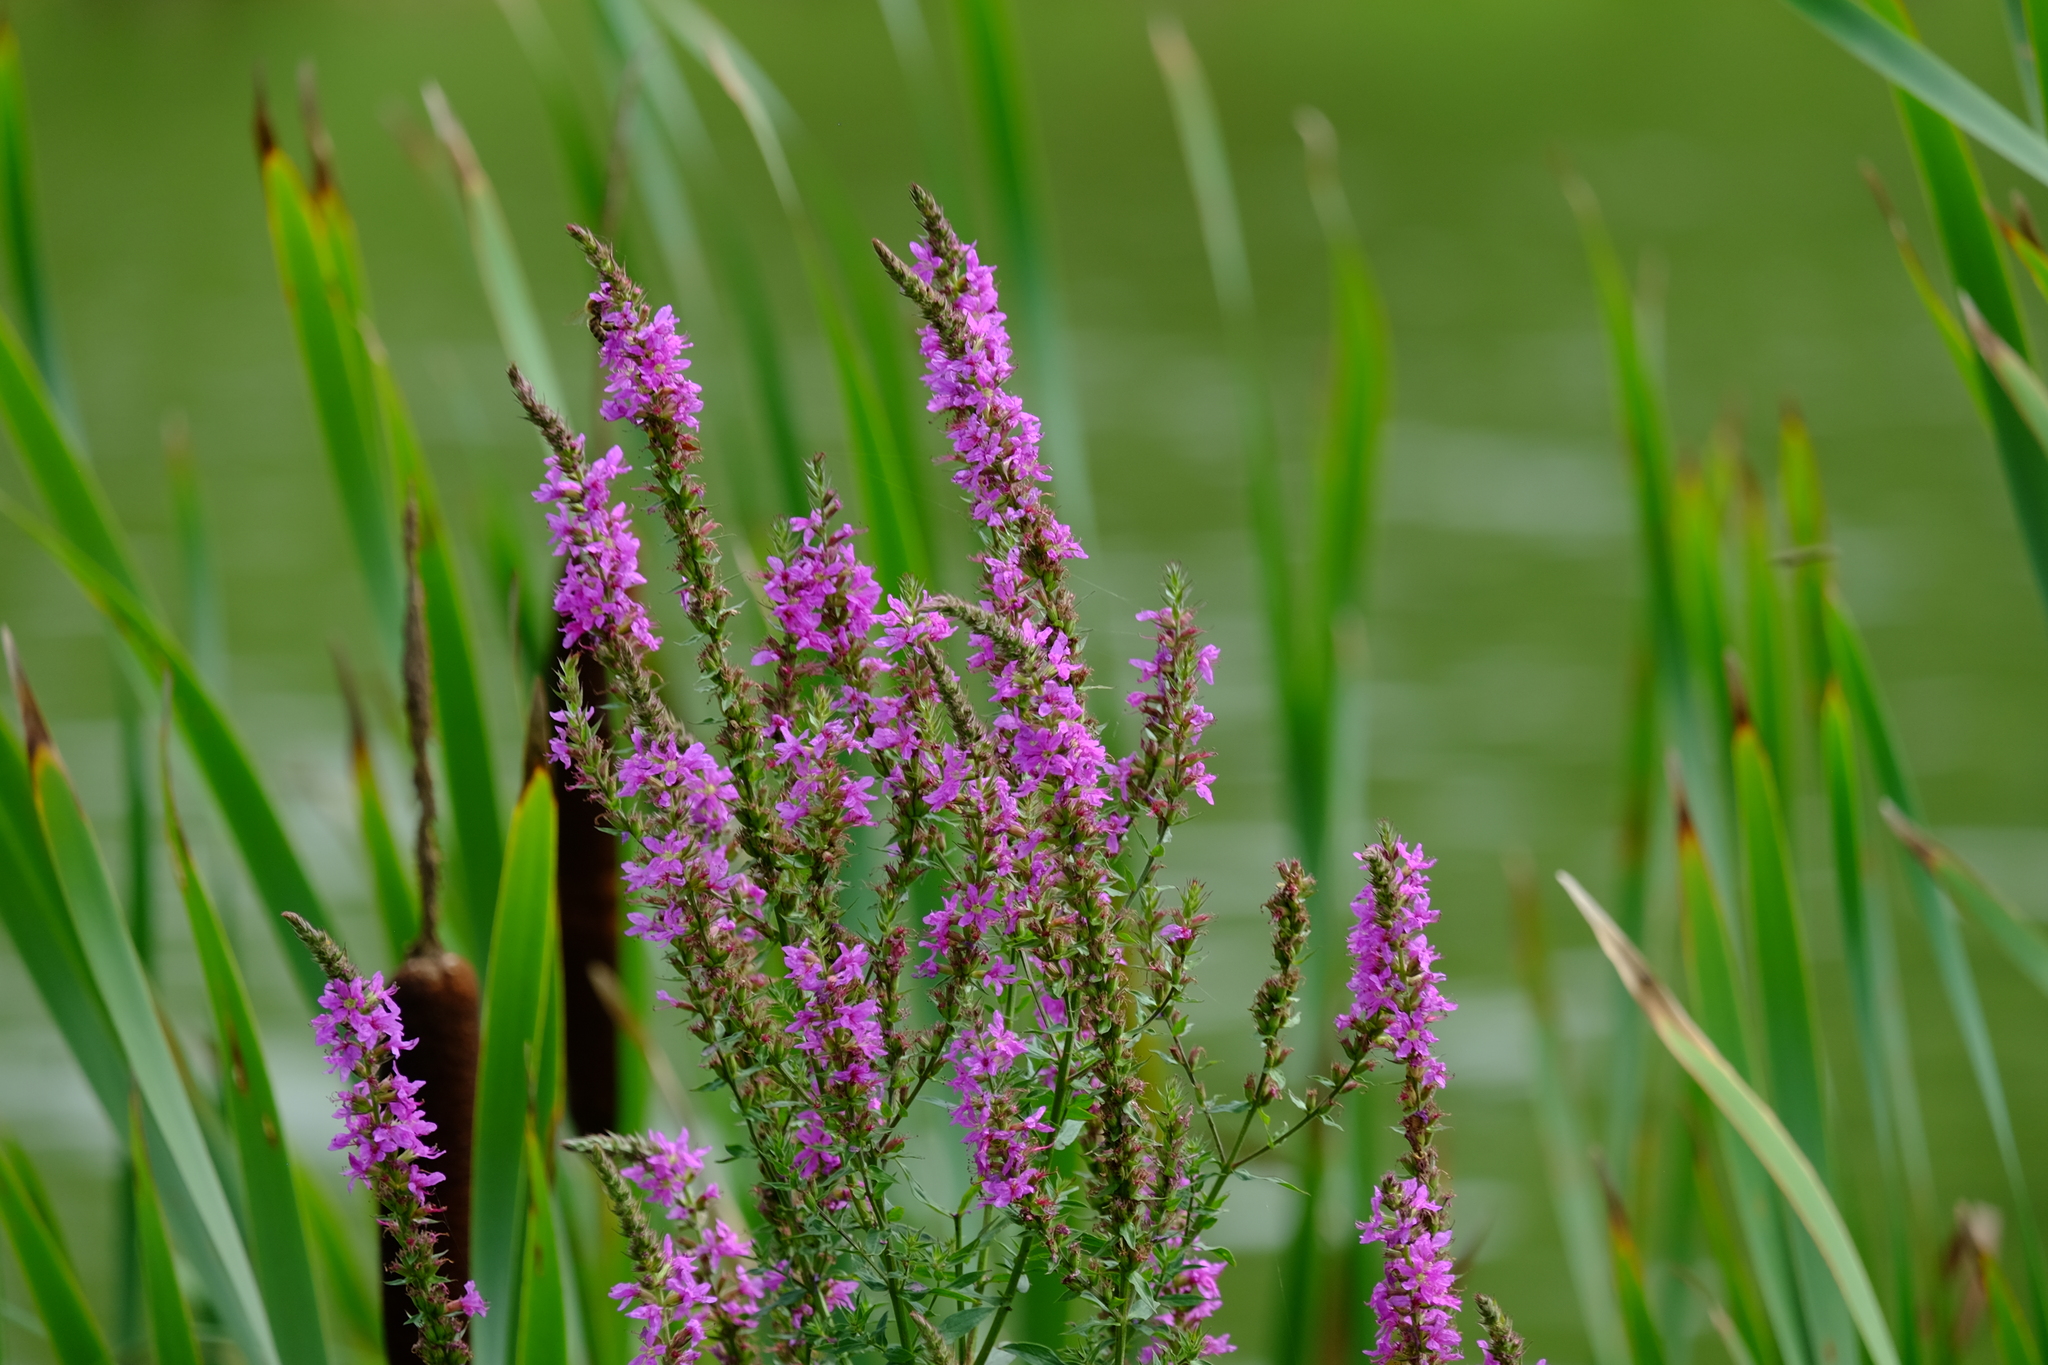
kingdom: Plantae
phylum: Tracheophyta
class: Magnoliopsida
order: Myrtales
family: Lythraceae
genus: Lythrum
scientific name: Lythrum salicaria
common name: Purple loosestrife
